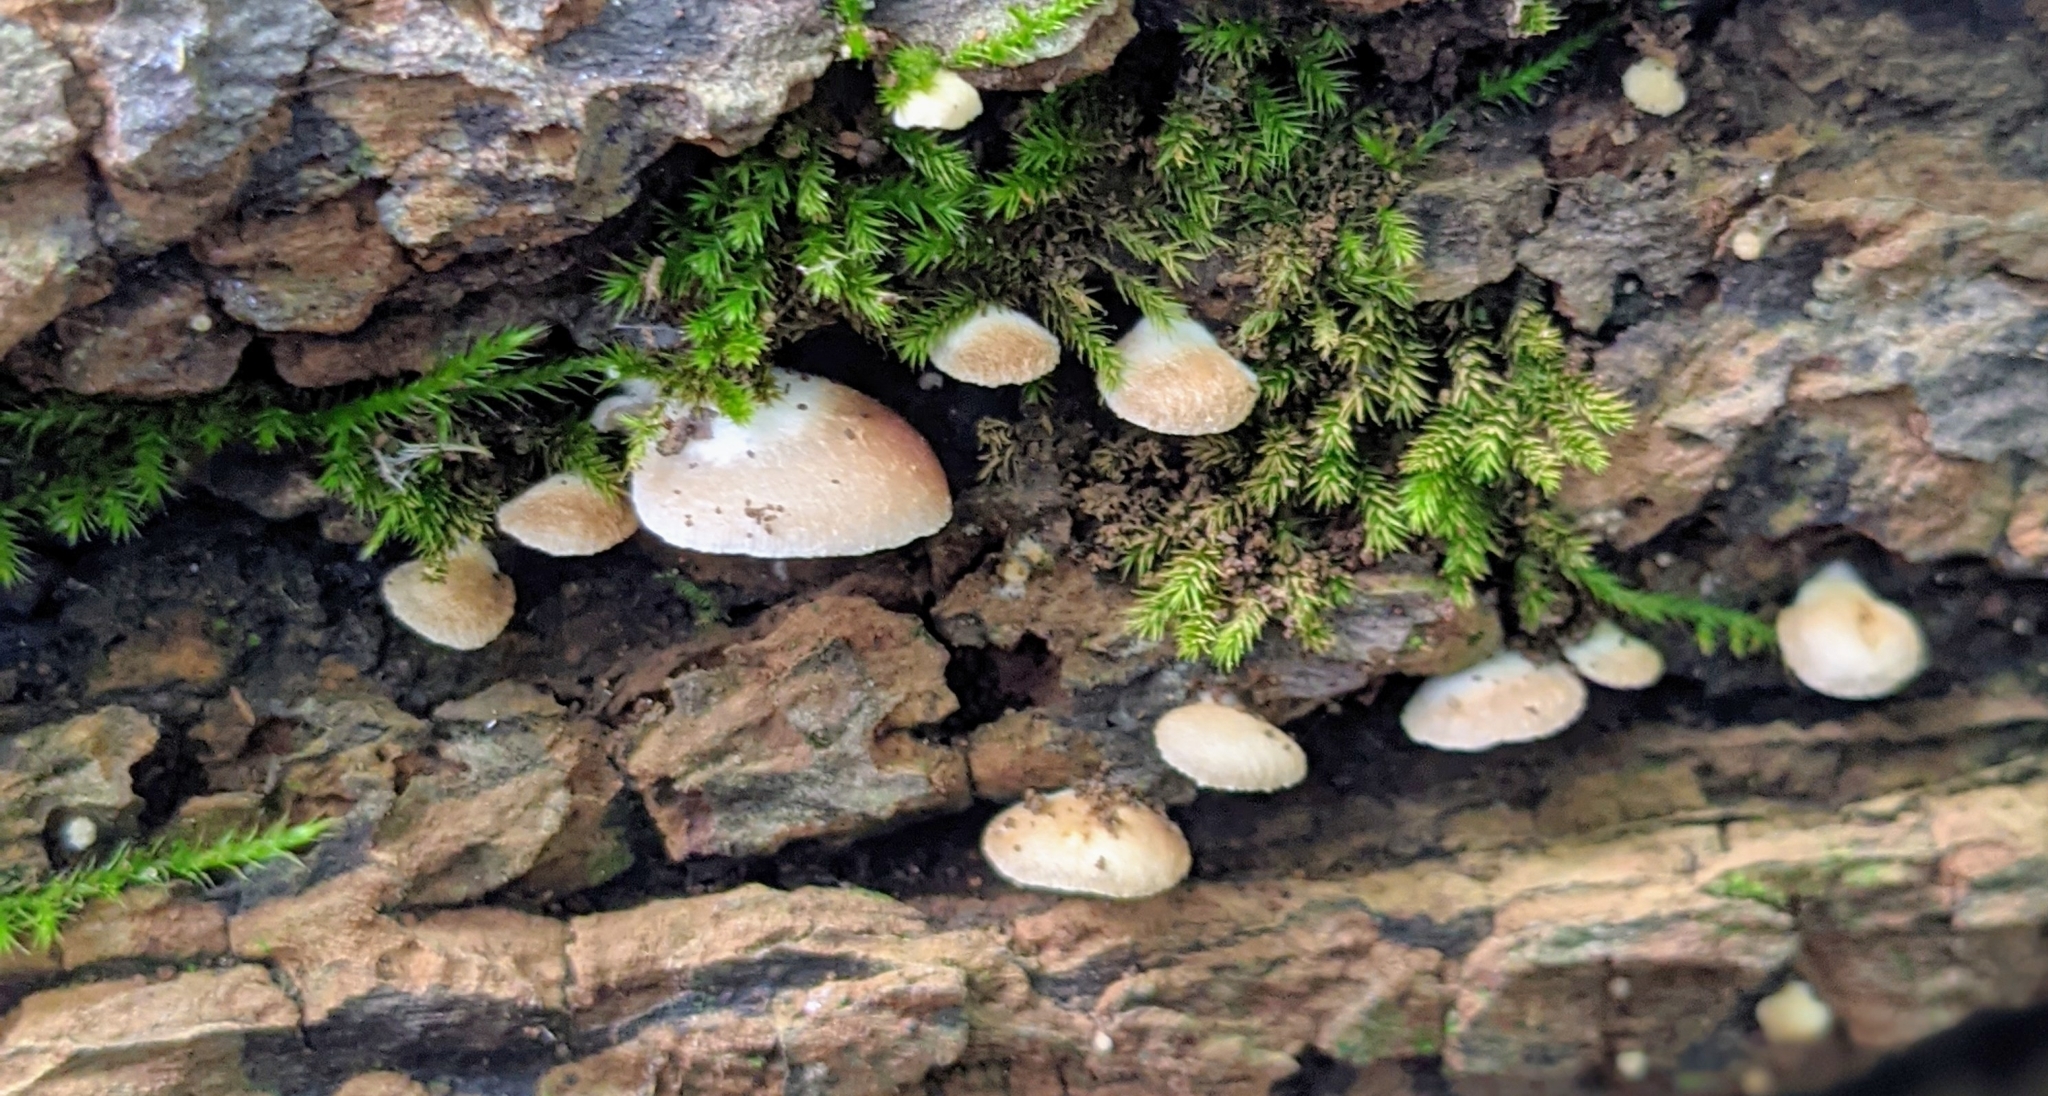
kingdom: Fungi
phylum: Basidiomycota
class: Agaricomycetes
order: Agaricales
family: Mycenaceae
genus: Panellus
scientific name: Panellus stipticus
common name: Bitter oysterling
